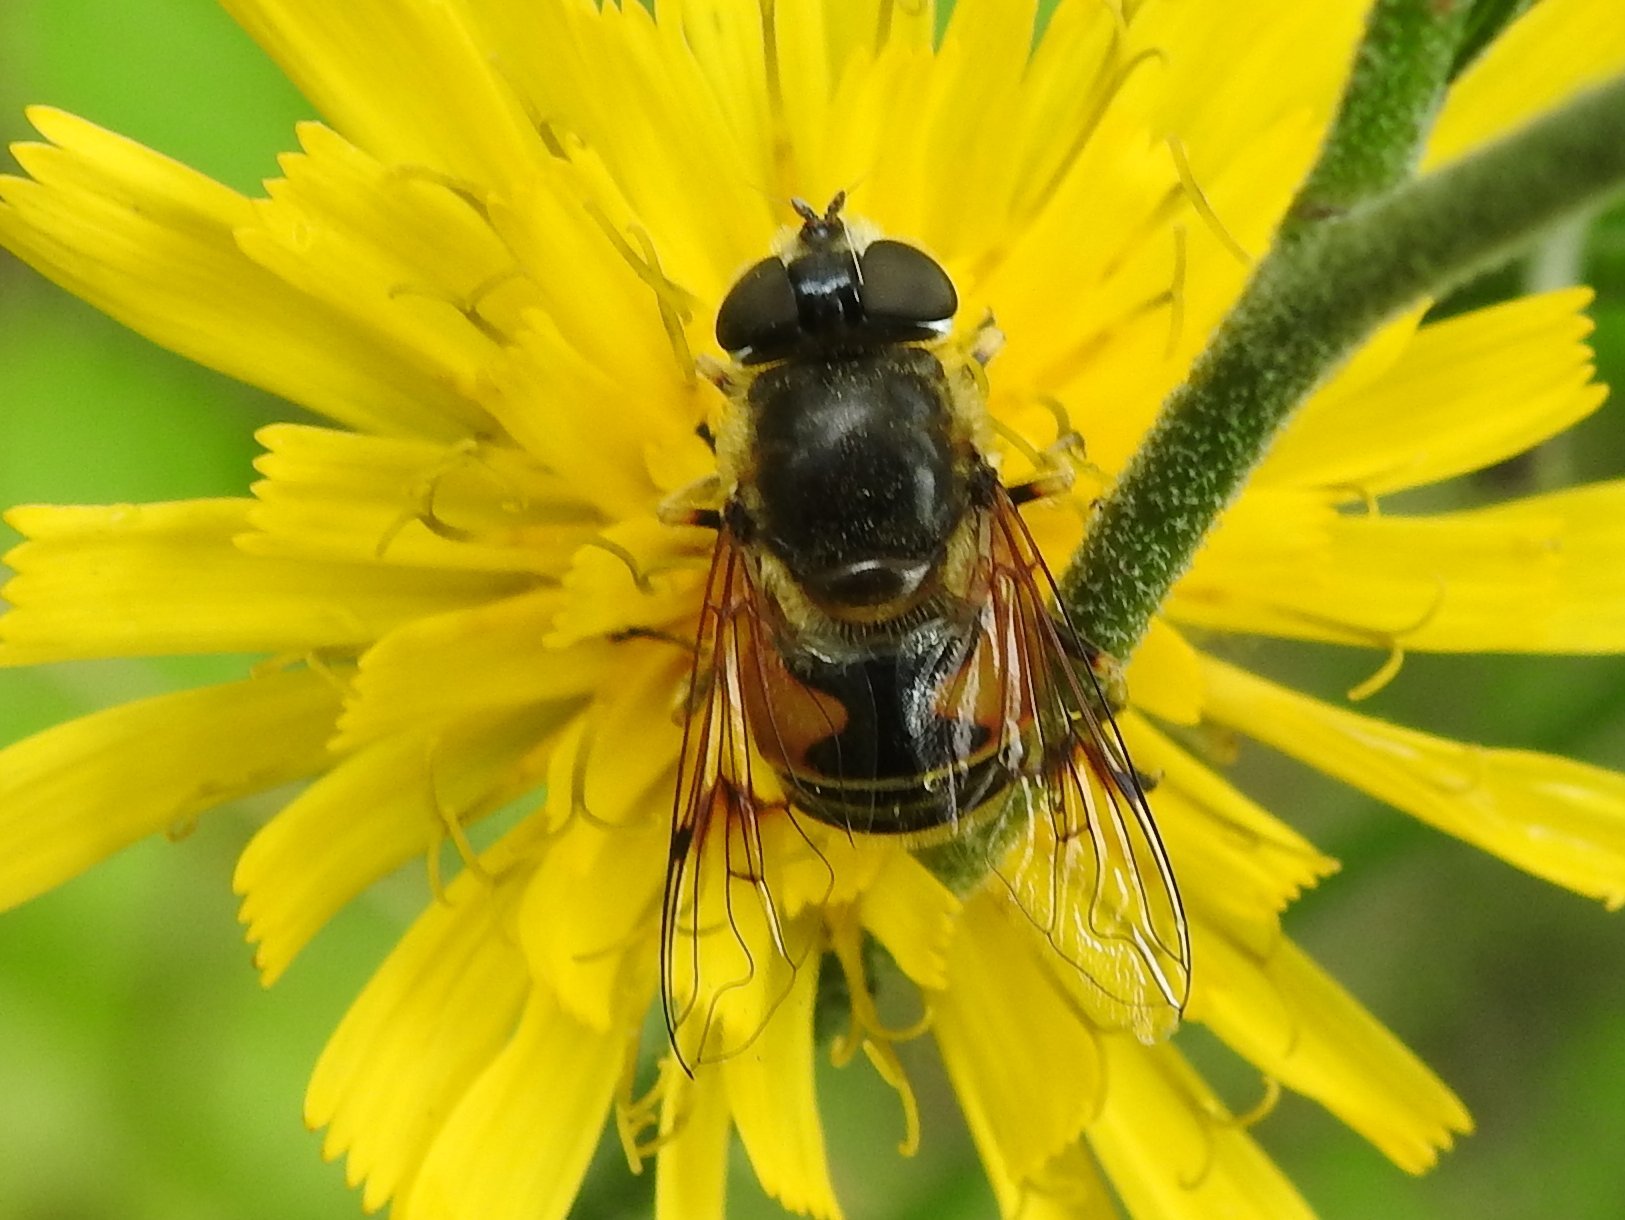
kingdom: Animalia
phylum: Arthropoda
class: Insecta
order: Diptera
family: Syrphidae
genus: Cheilosia
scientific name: Cheilosia morio
